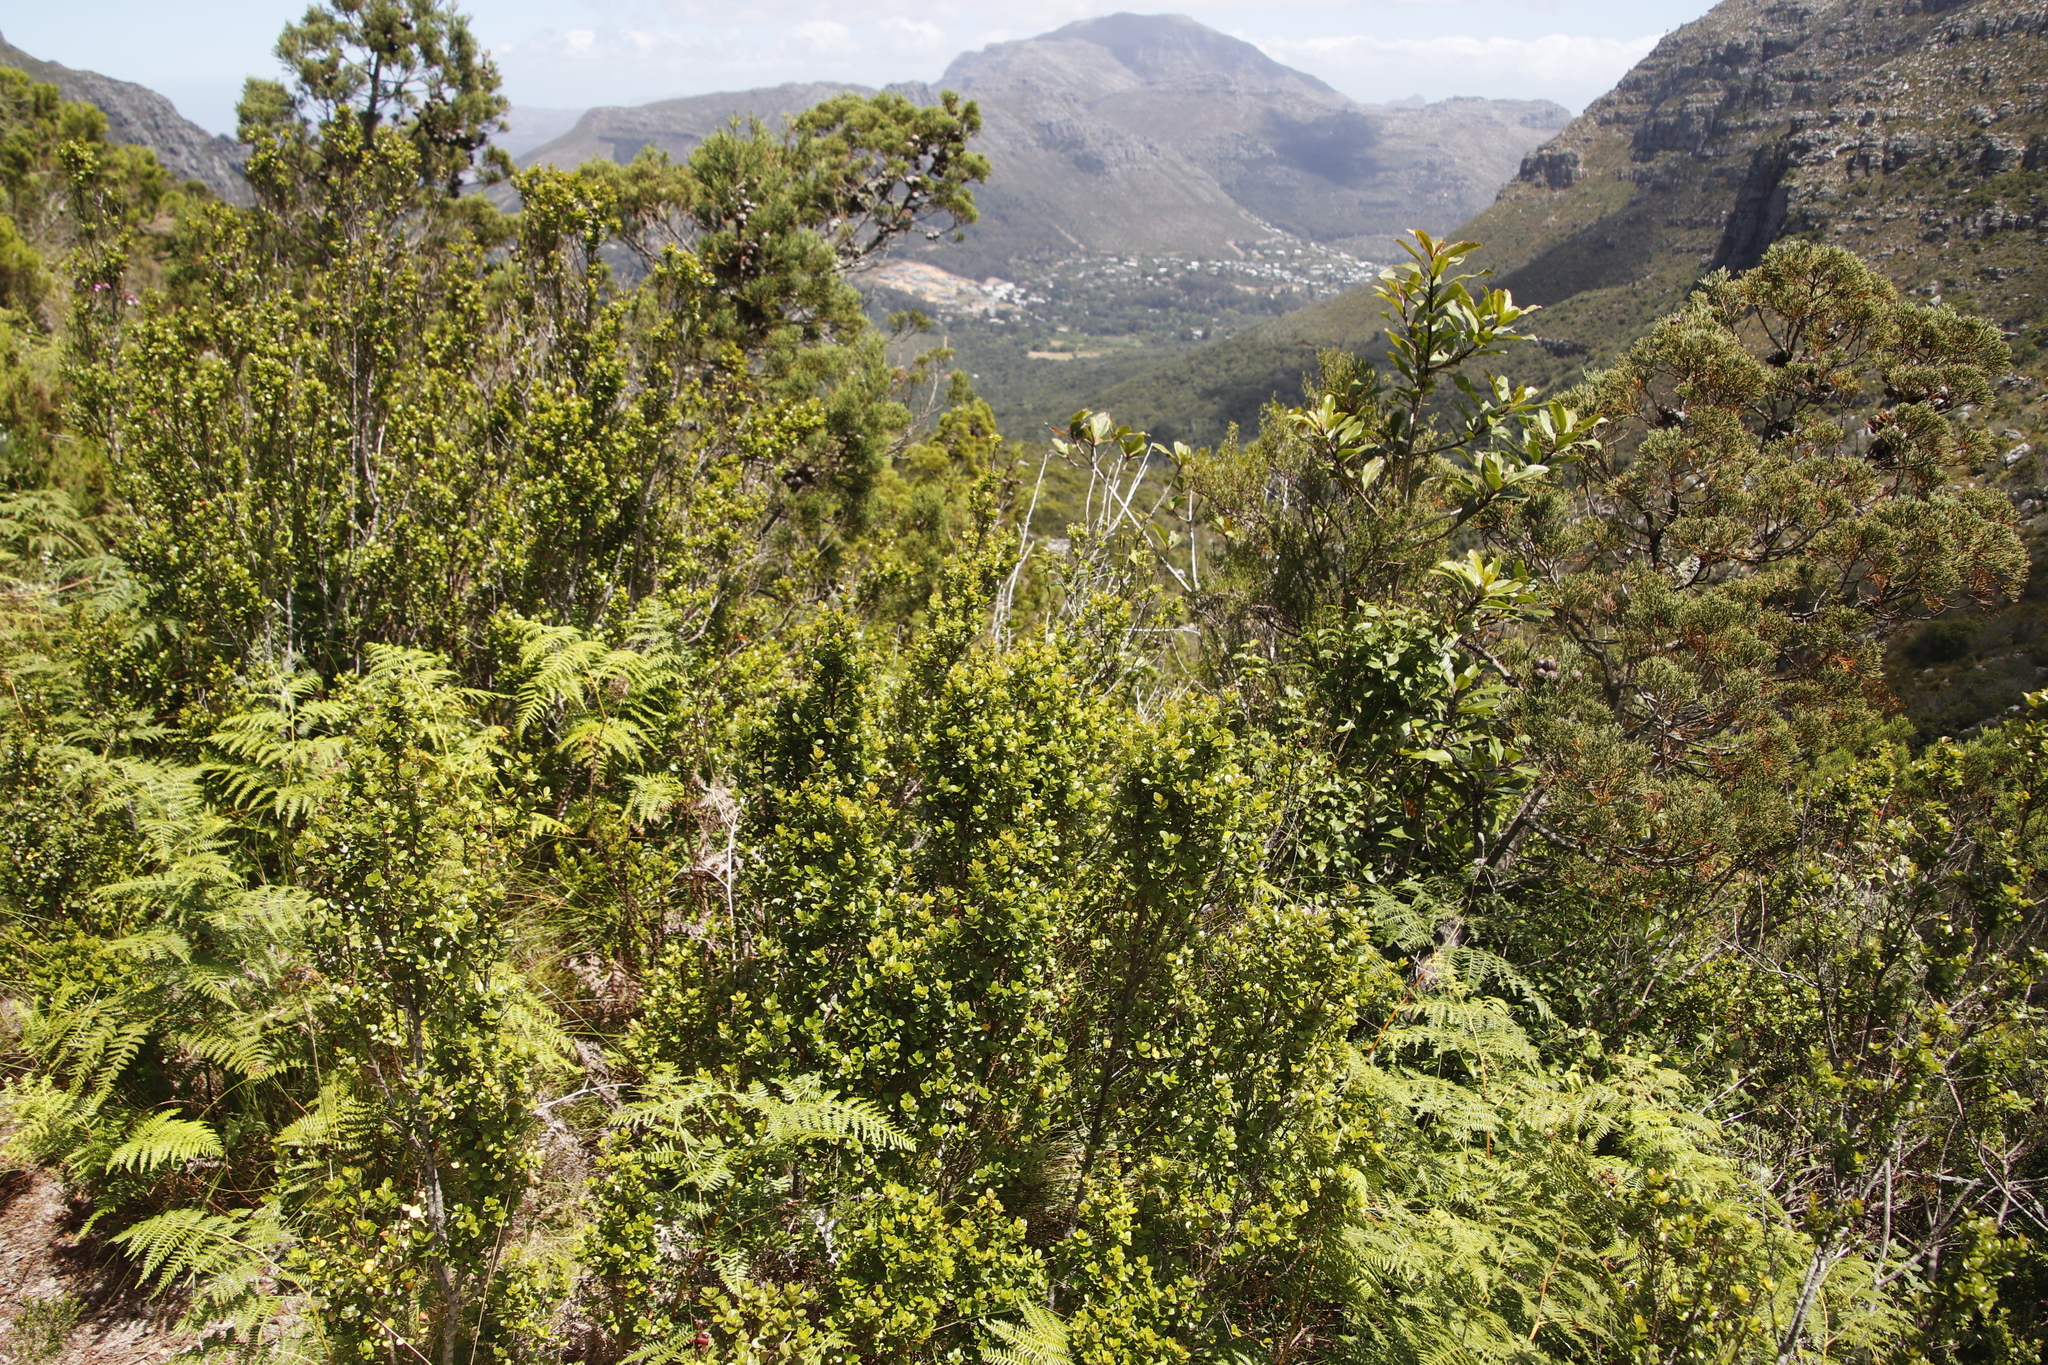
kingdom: Plantae
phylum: Tracheophyta
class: Magnoliopsida
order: Ericales
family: Primulaceae
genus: Myrsine
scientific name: Myrsine africana
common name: African-boxwood
